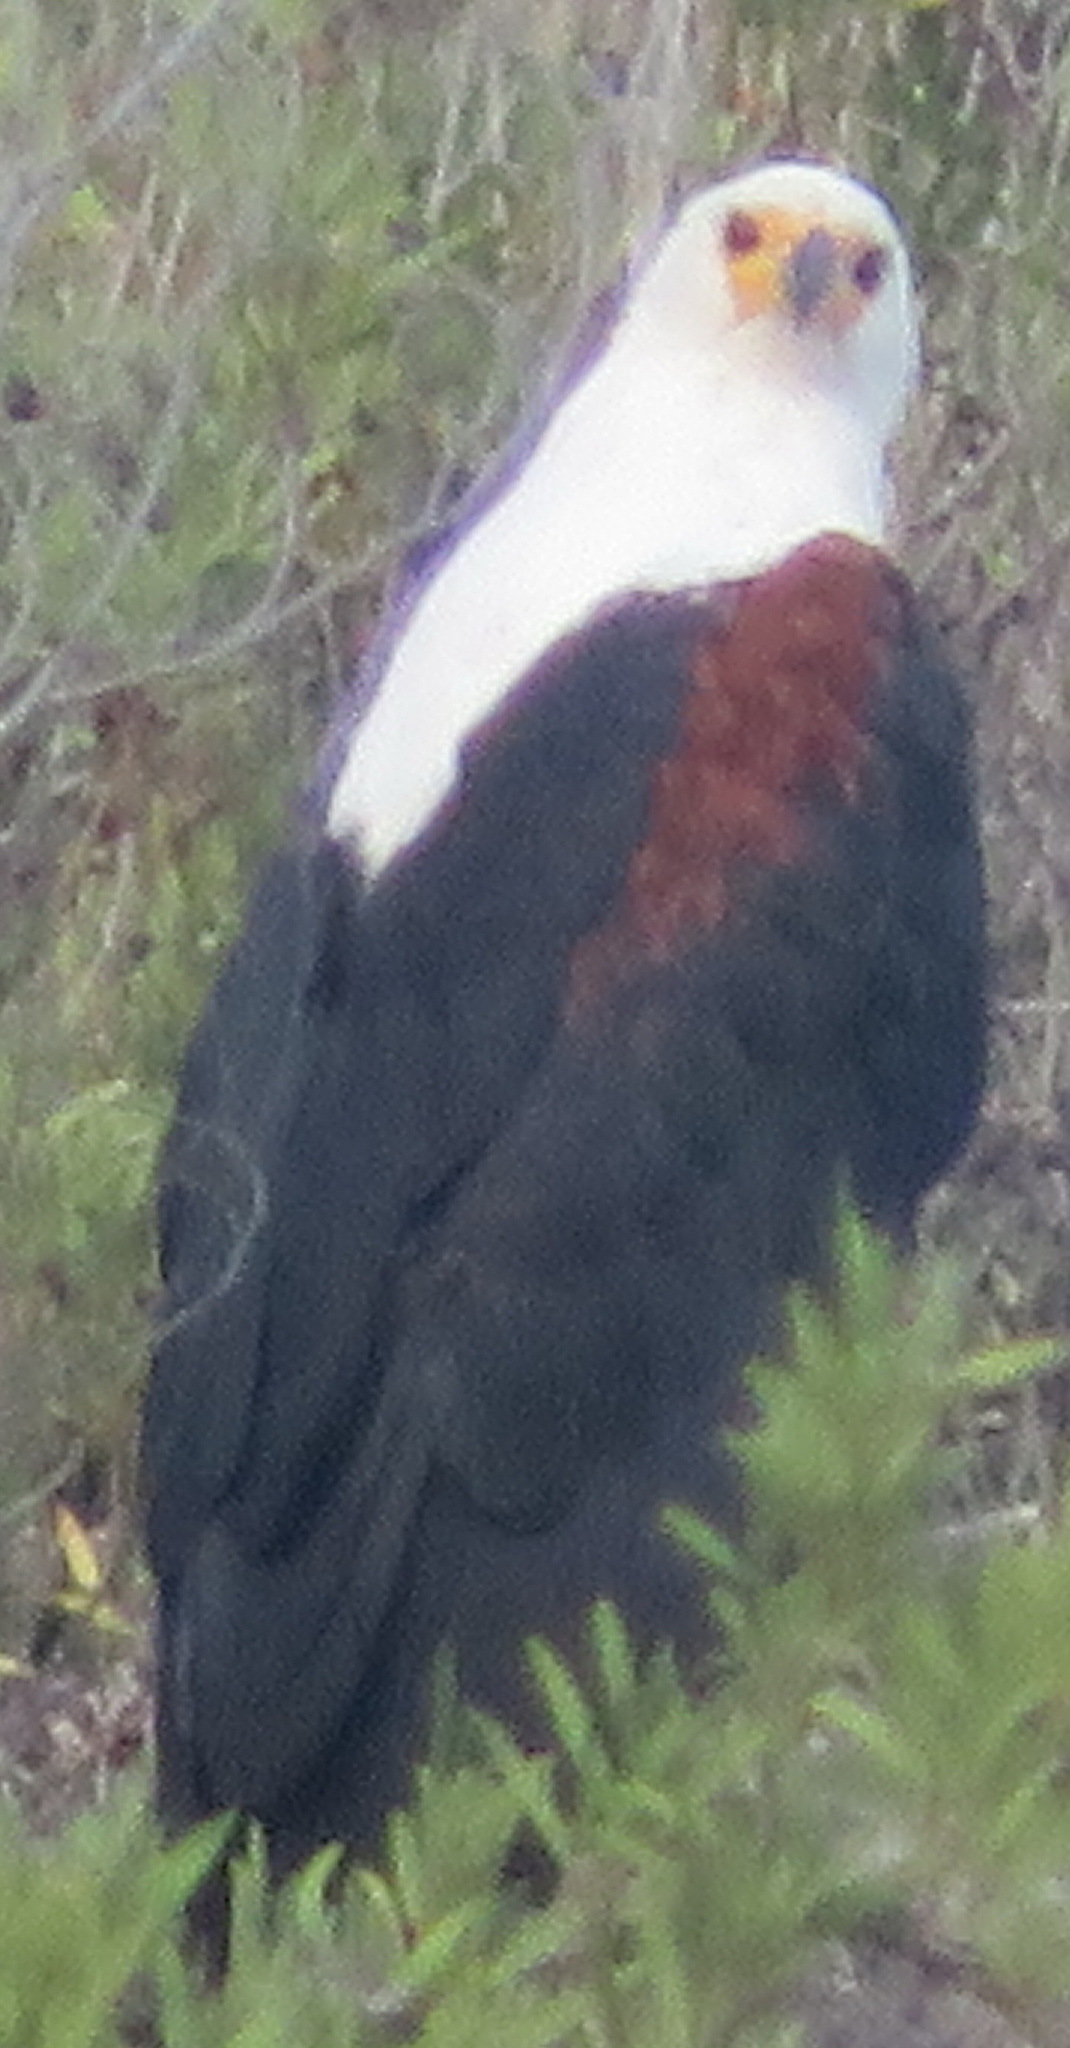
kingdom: Animalia
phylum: Chordata
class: Aves
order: Accipitriformes
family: Accipitridae
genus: Haliaeetus
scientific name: Haliaeetus vocifer
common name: African fish eagle
